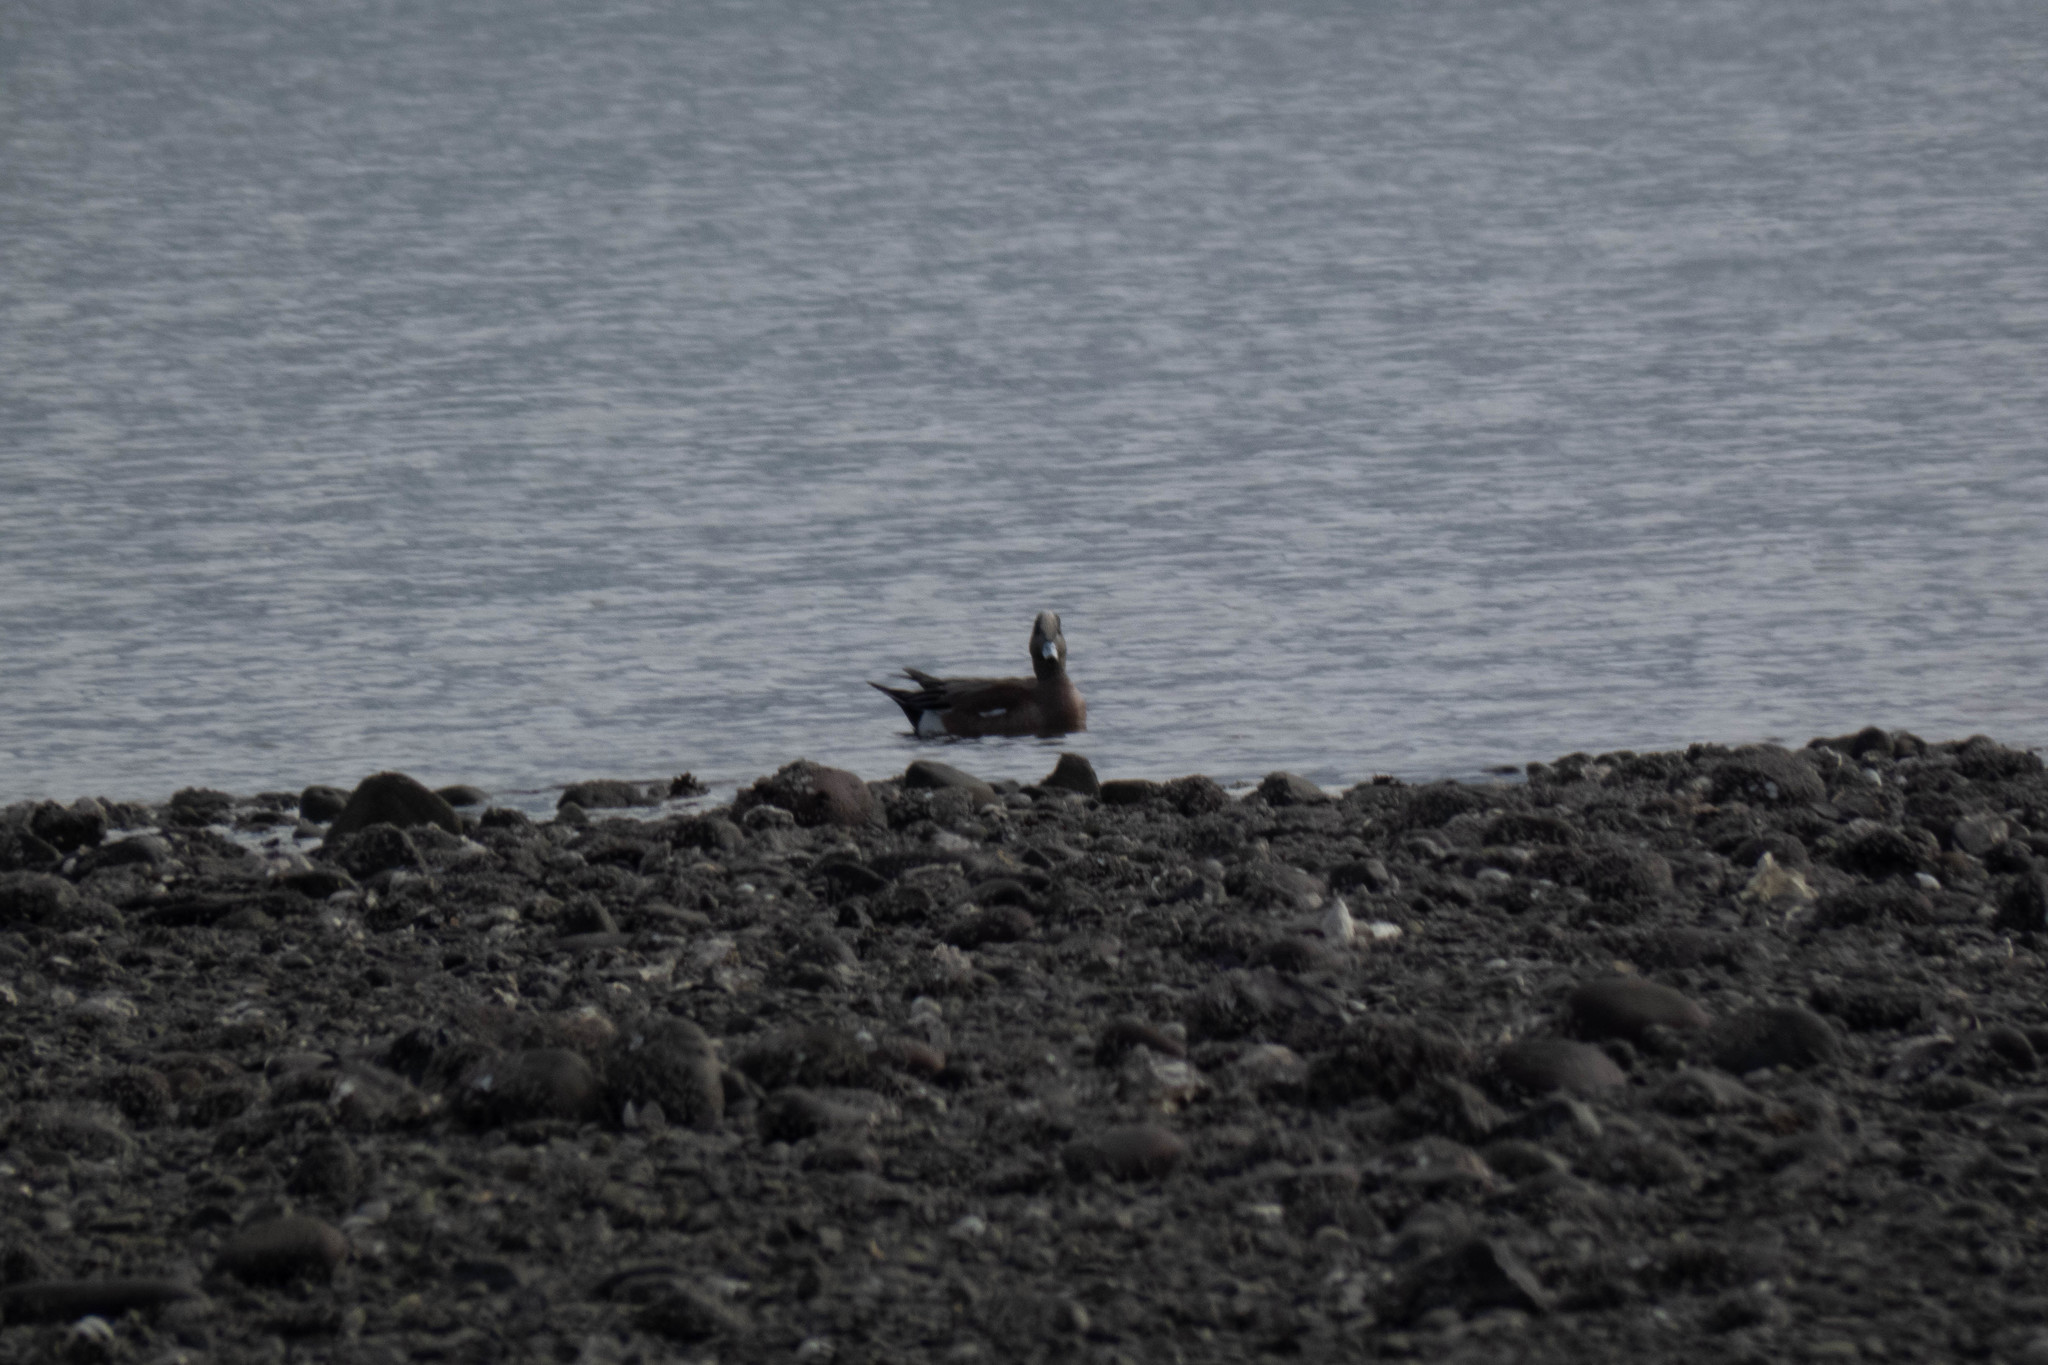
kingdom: Animalia
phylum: Chordata
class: Aves
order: Anseriformes
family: Anatidae
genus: Mareca
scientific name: Mareca americana
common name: American wigeon
